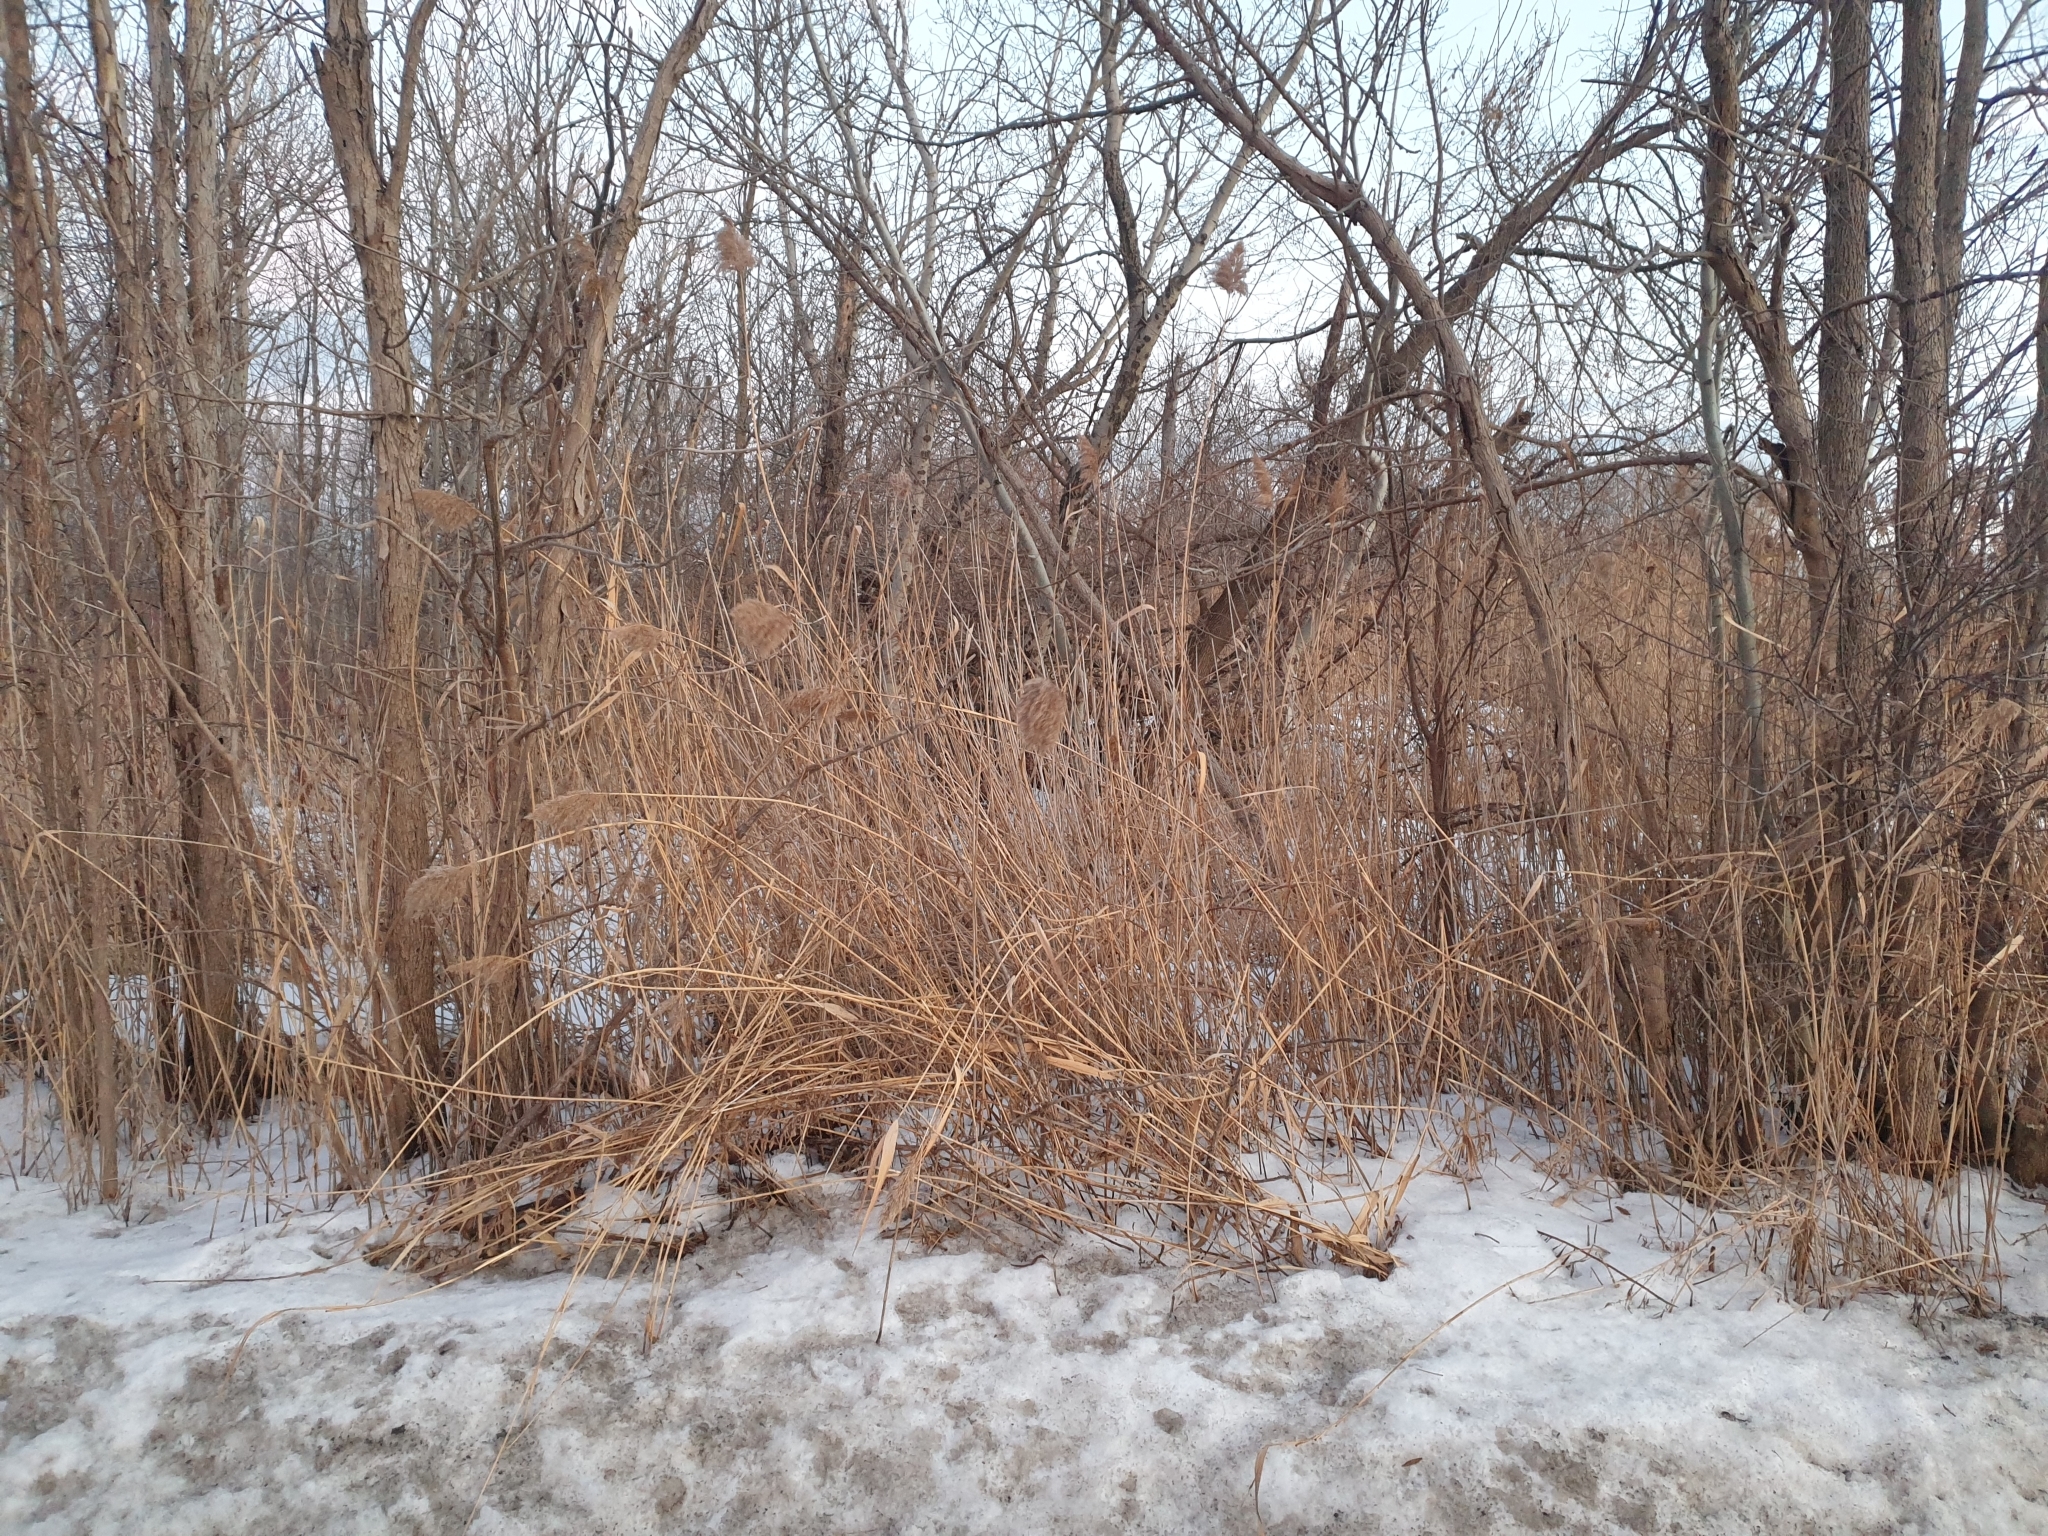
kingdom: Plantae
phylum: Tracheophyta
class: Liliopsida
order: Poales
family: Poaceae
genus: Phragmites
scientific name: Phragmites australis
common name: Common reed
